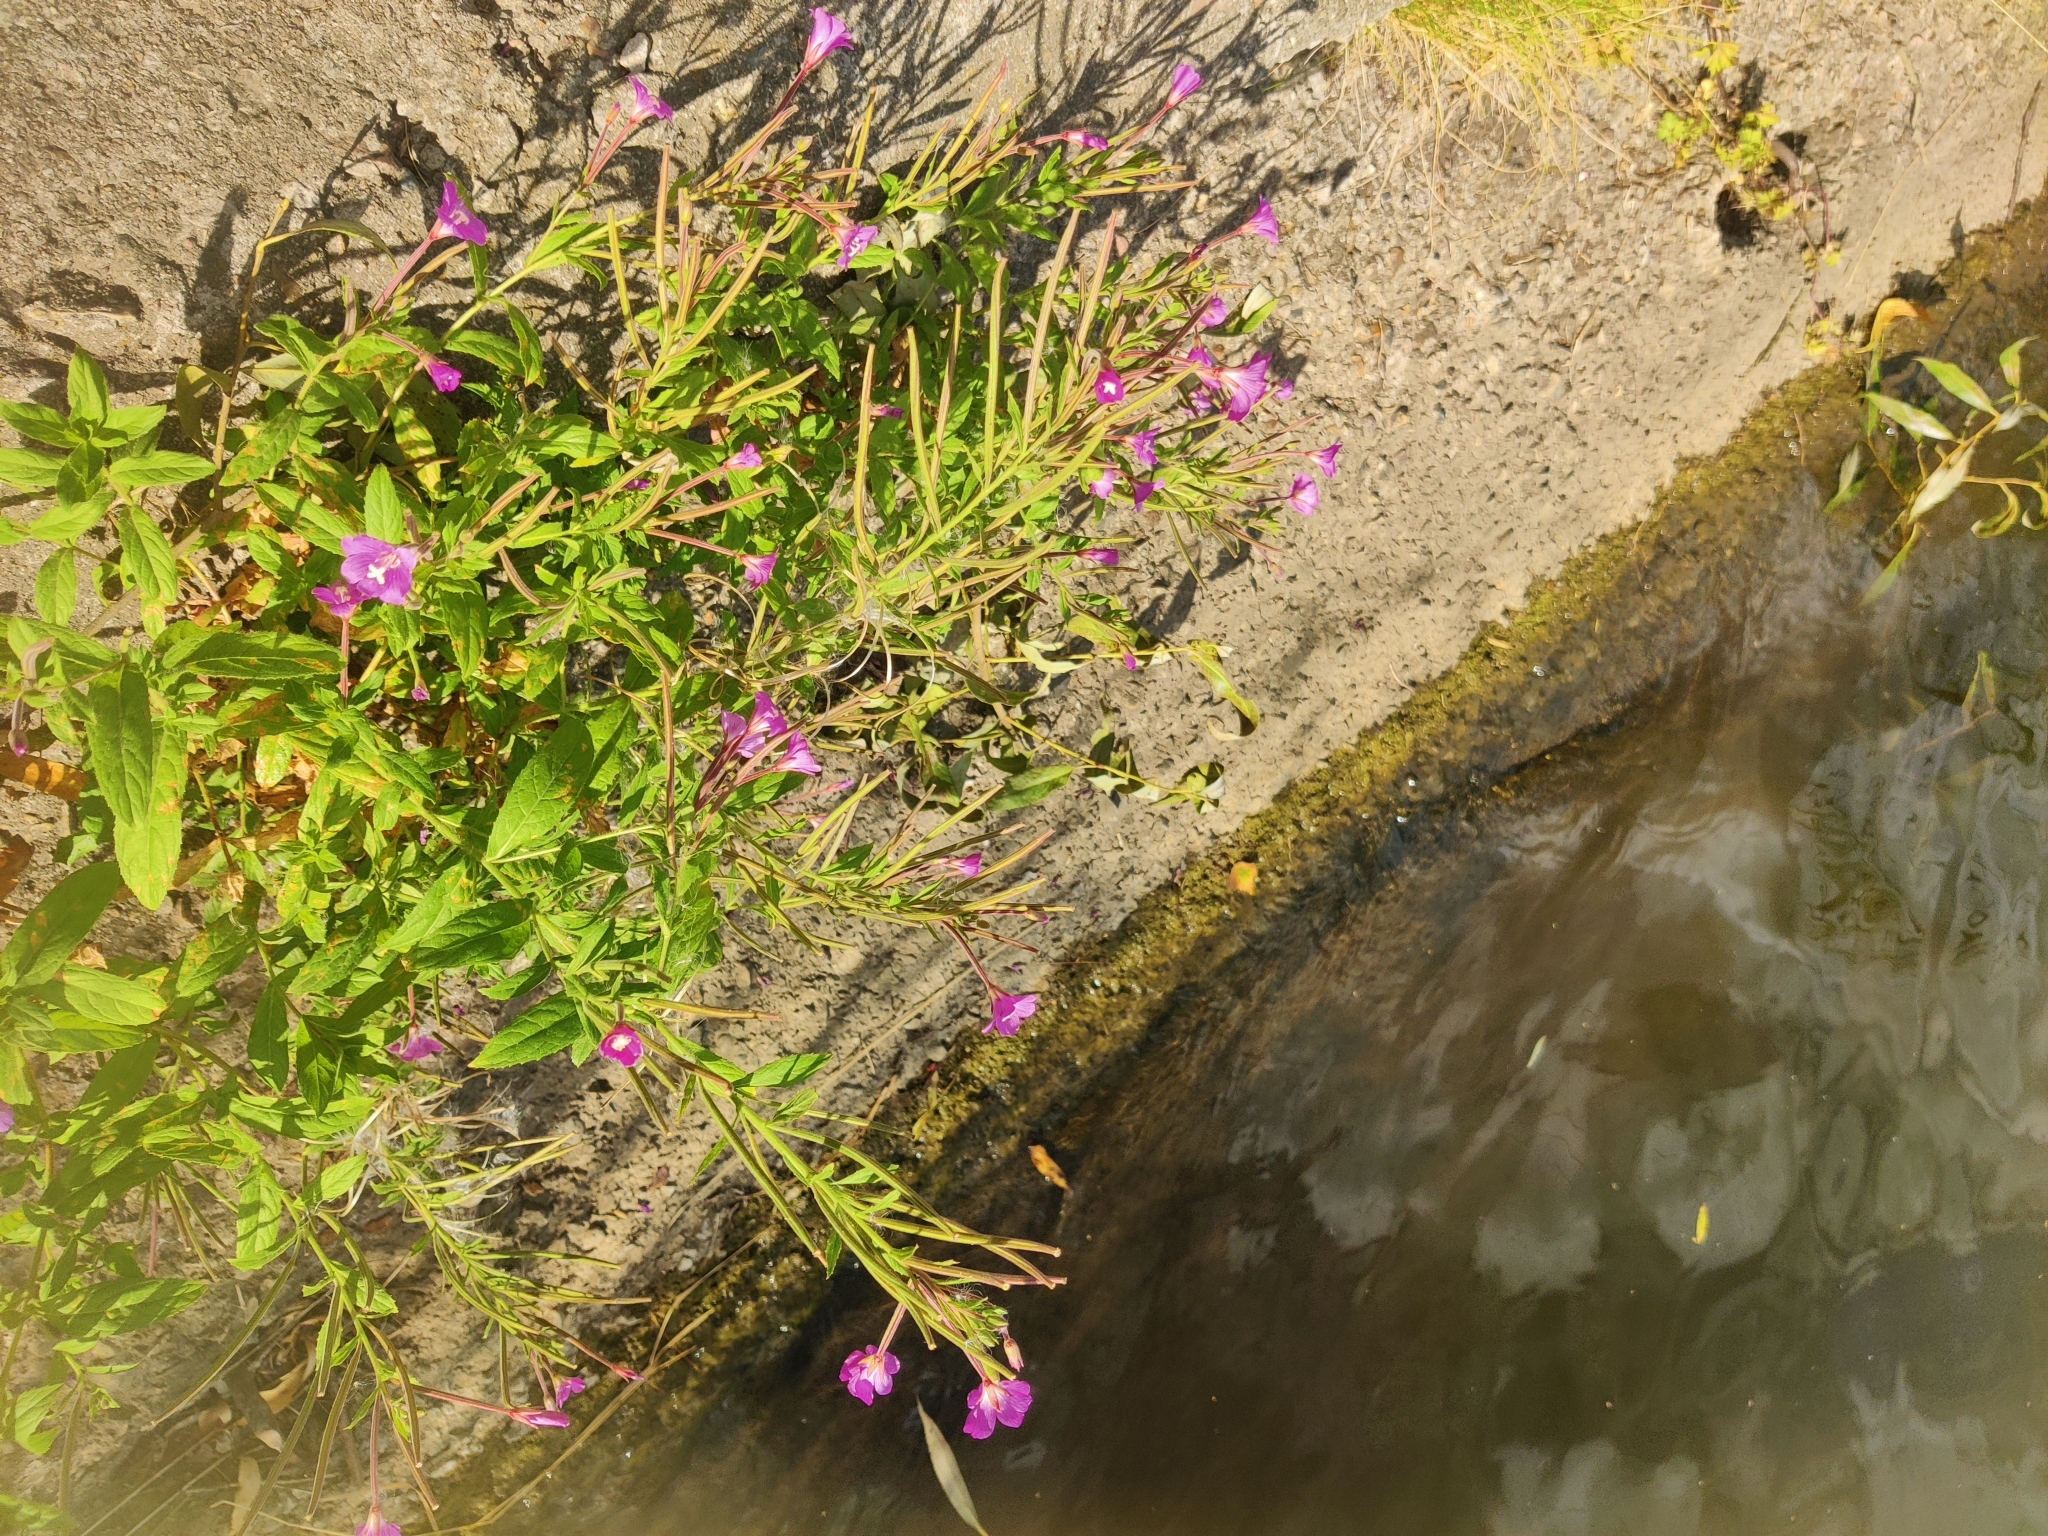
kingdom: Plantae
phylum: Tracheophyta
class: Magnoliopsida
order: Myrtales
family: Onagraceae
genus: Epilobium
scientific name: Epilobium hirsutum
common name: Great willowherb
